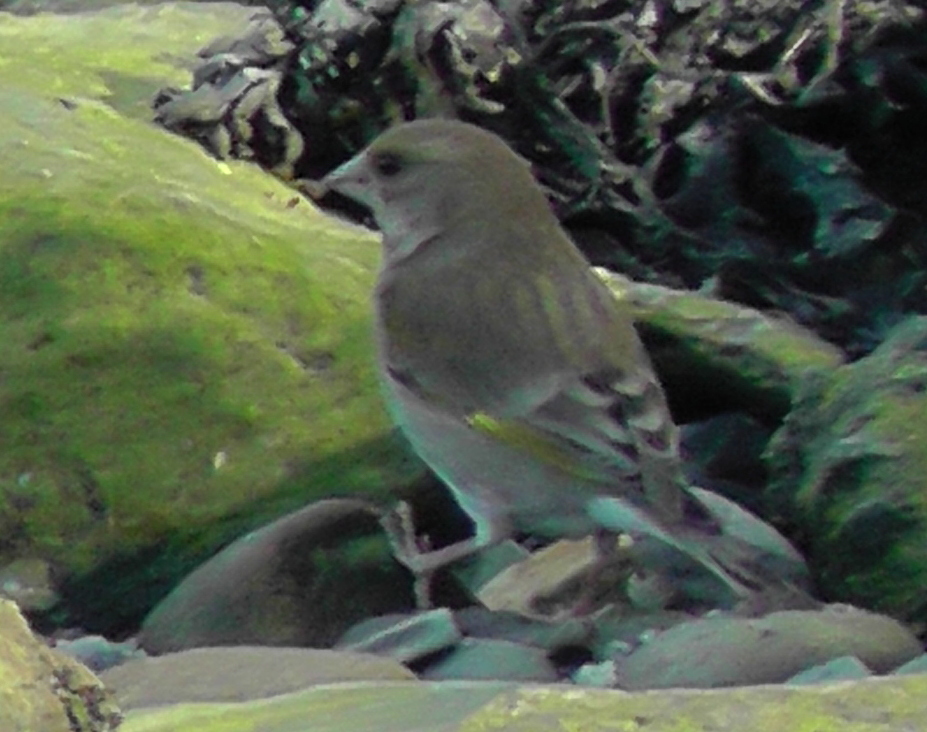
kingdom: Plantae
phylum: Tracheophyta
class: Liliopsida
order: Poales
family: Poaceae
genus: Chloris
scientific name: Chloris chloris
